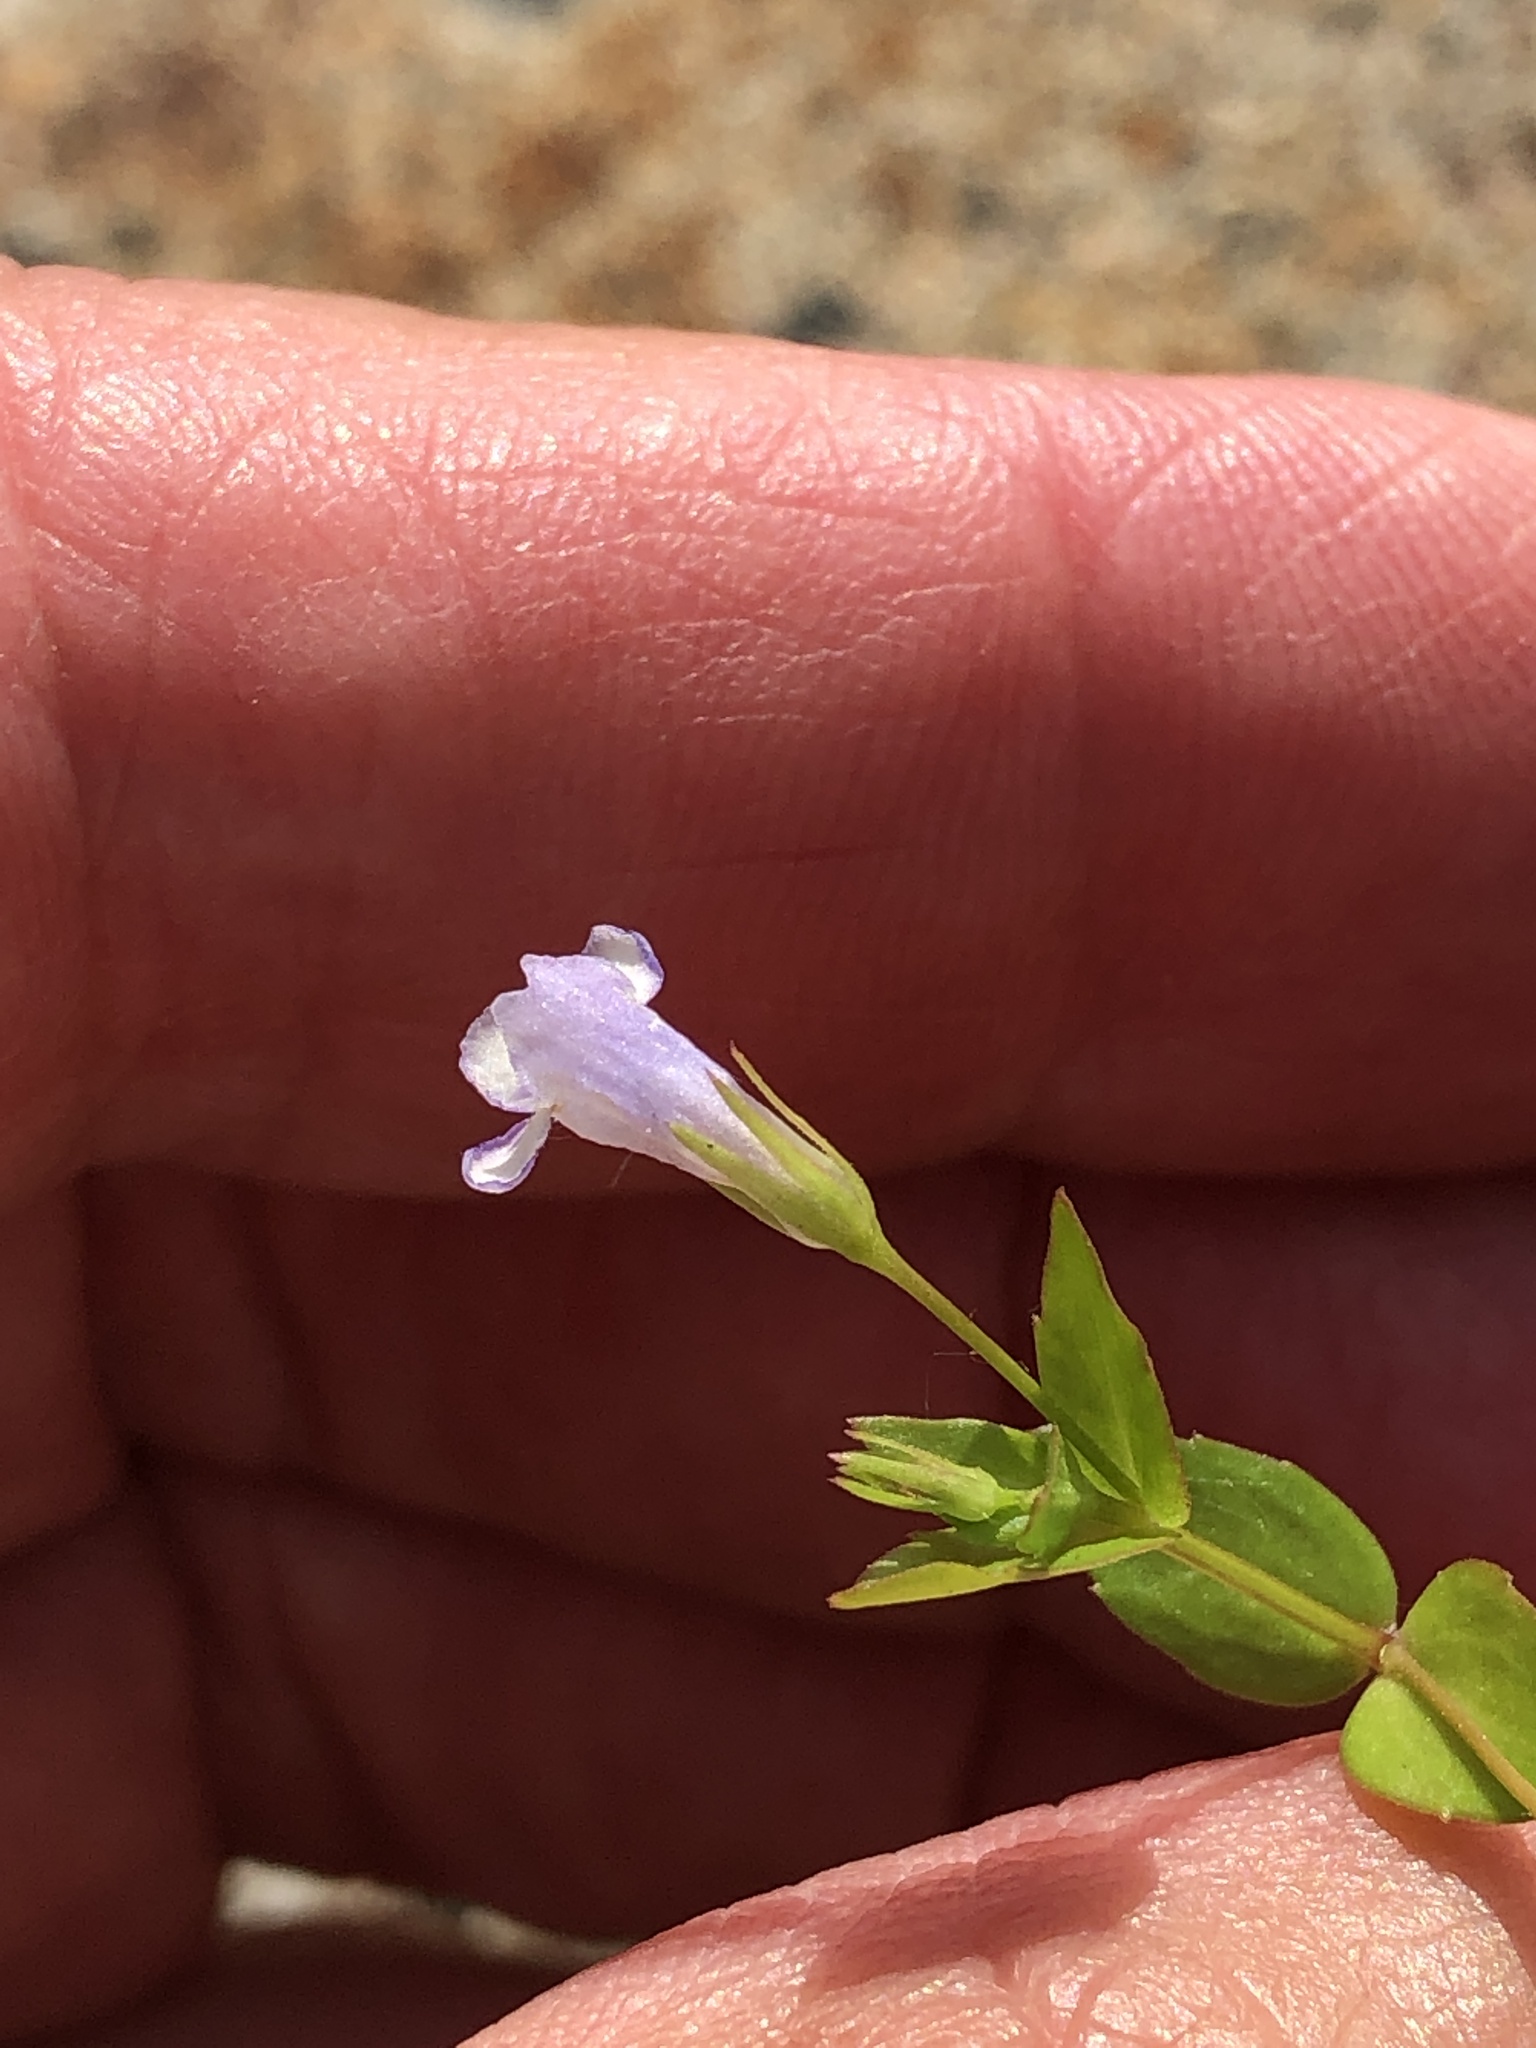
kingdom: Plantae
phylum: Tracheophyta
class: Magnoliopsida
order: Lamiales
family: Linderniaceae
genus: Lindernia
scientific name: Lindernia dubia
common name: Annual false pimpernel
